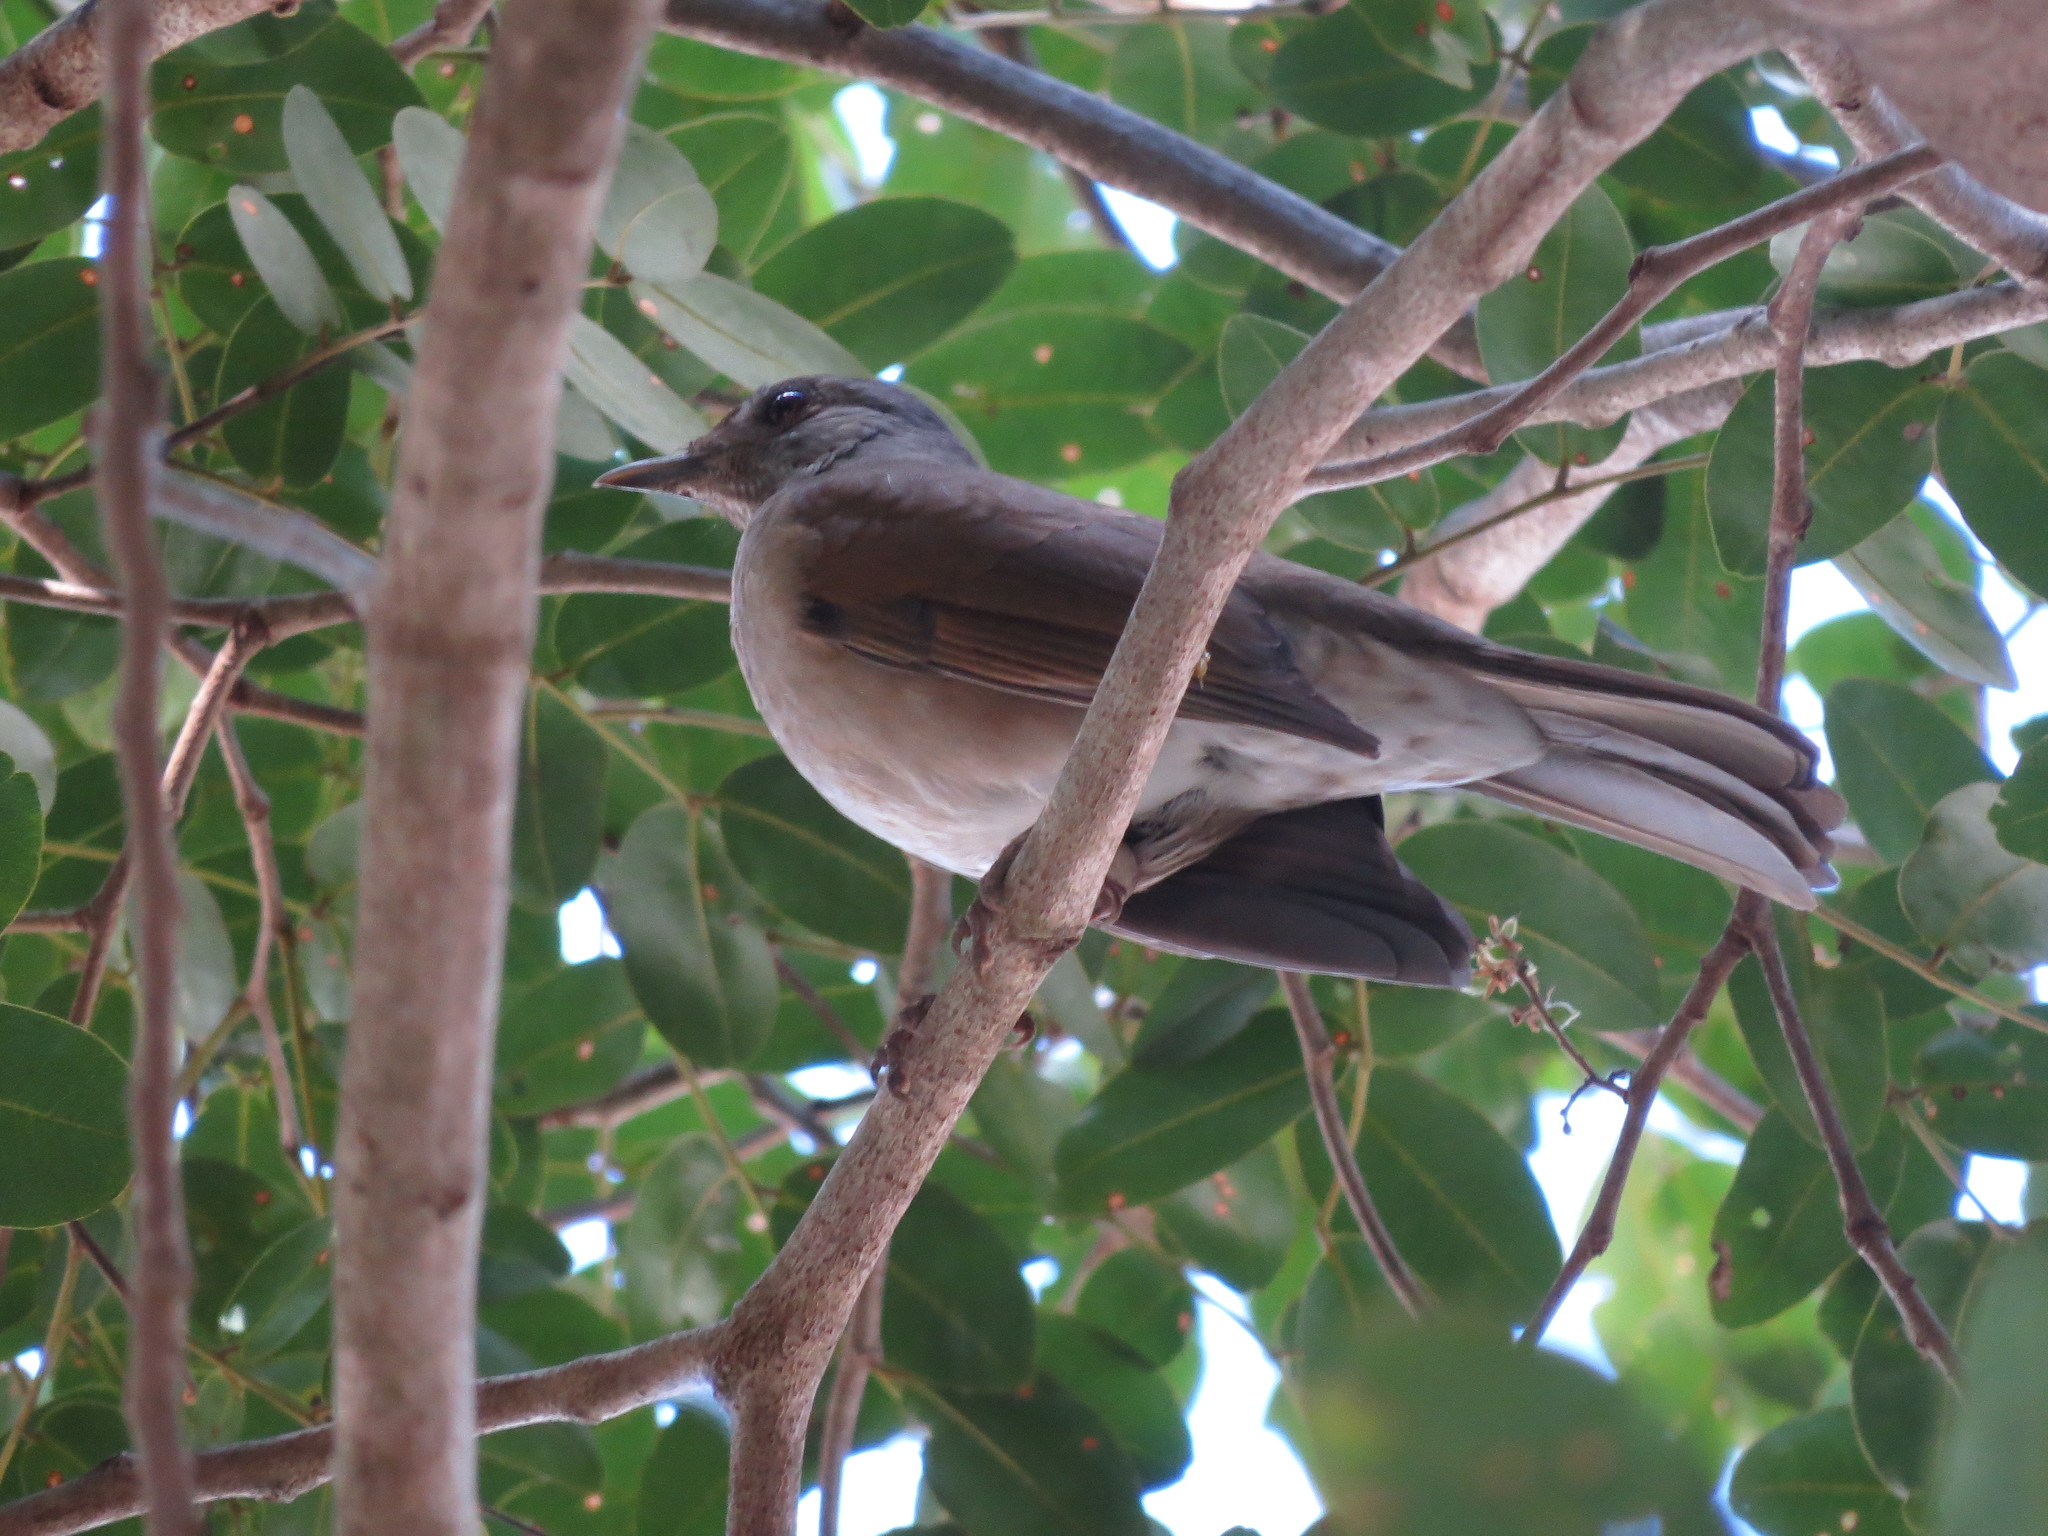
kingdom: Animalia
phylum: Chordata
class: Aves
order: Passeriformes
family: Turdidae
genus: Turdus
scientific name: Turdus leucomelas
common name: Pale-breasted thrush
